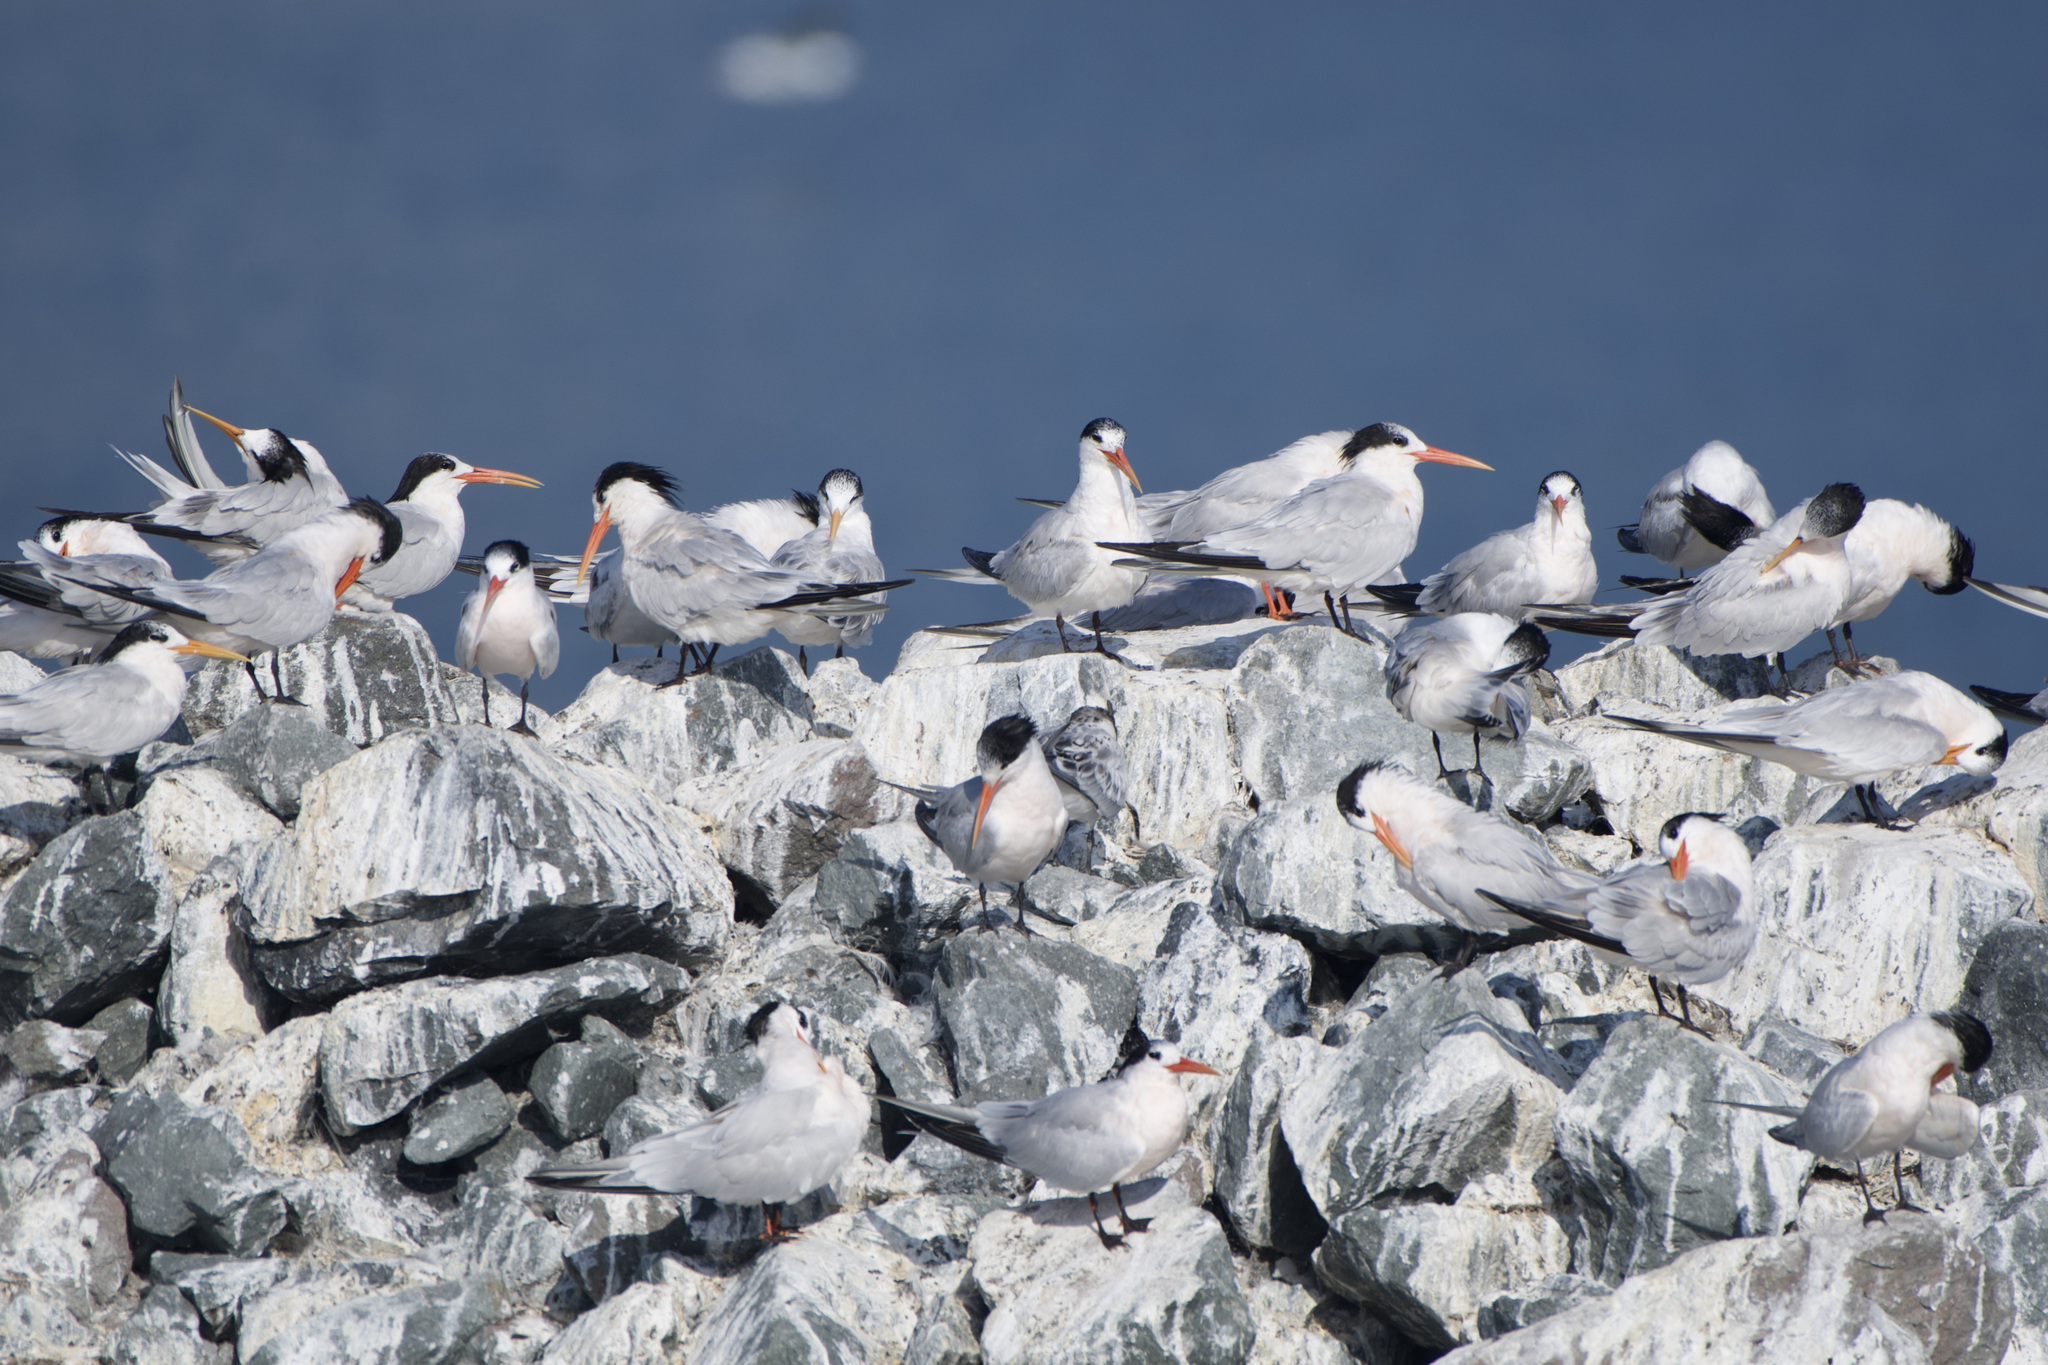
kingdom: Animalia
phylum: Chordata
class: Aves
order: Charadriiformes
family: Laridae
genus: Thalasseus
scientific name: Thalasseus elegans
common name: Elegant tern
